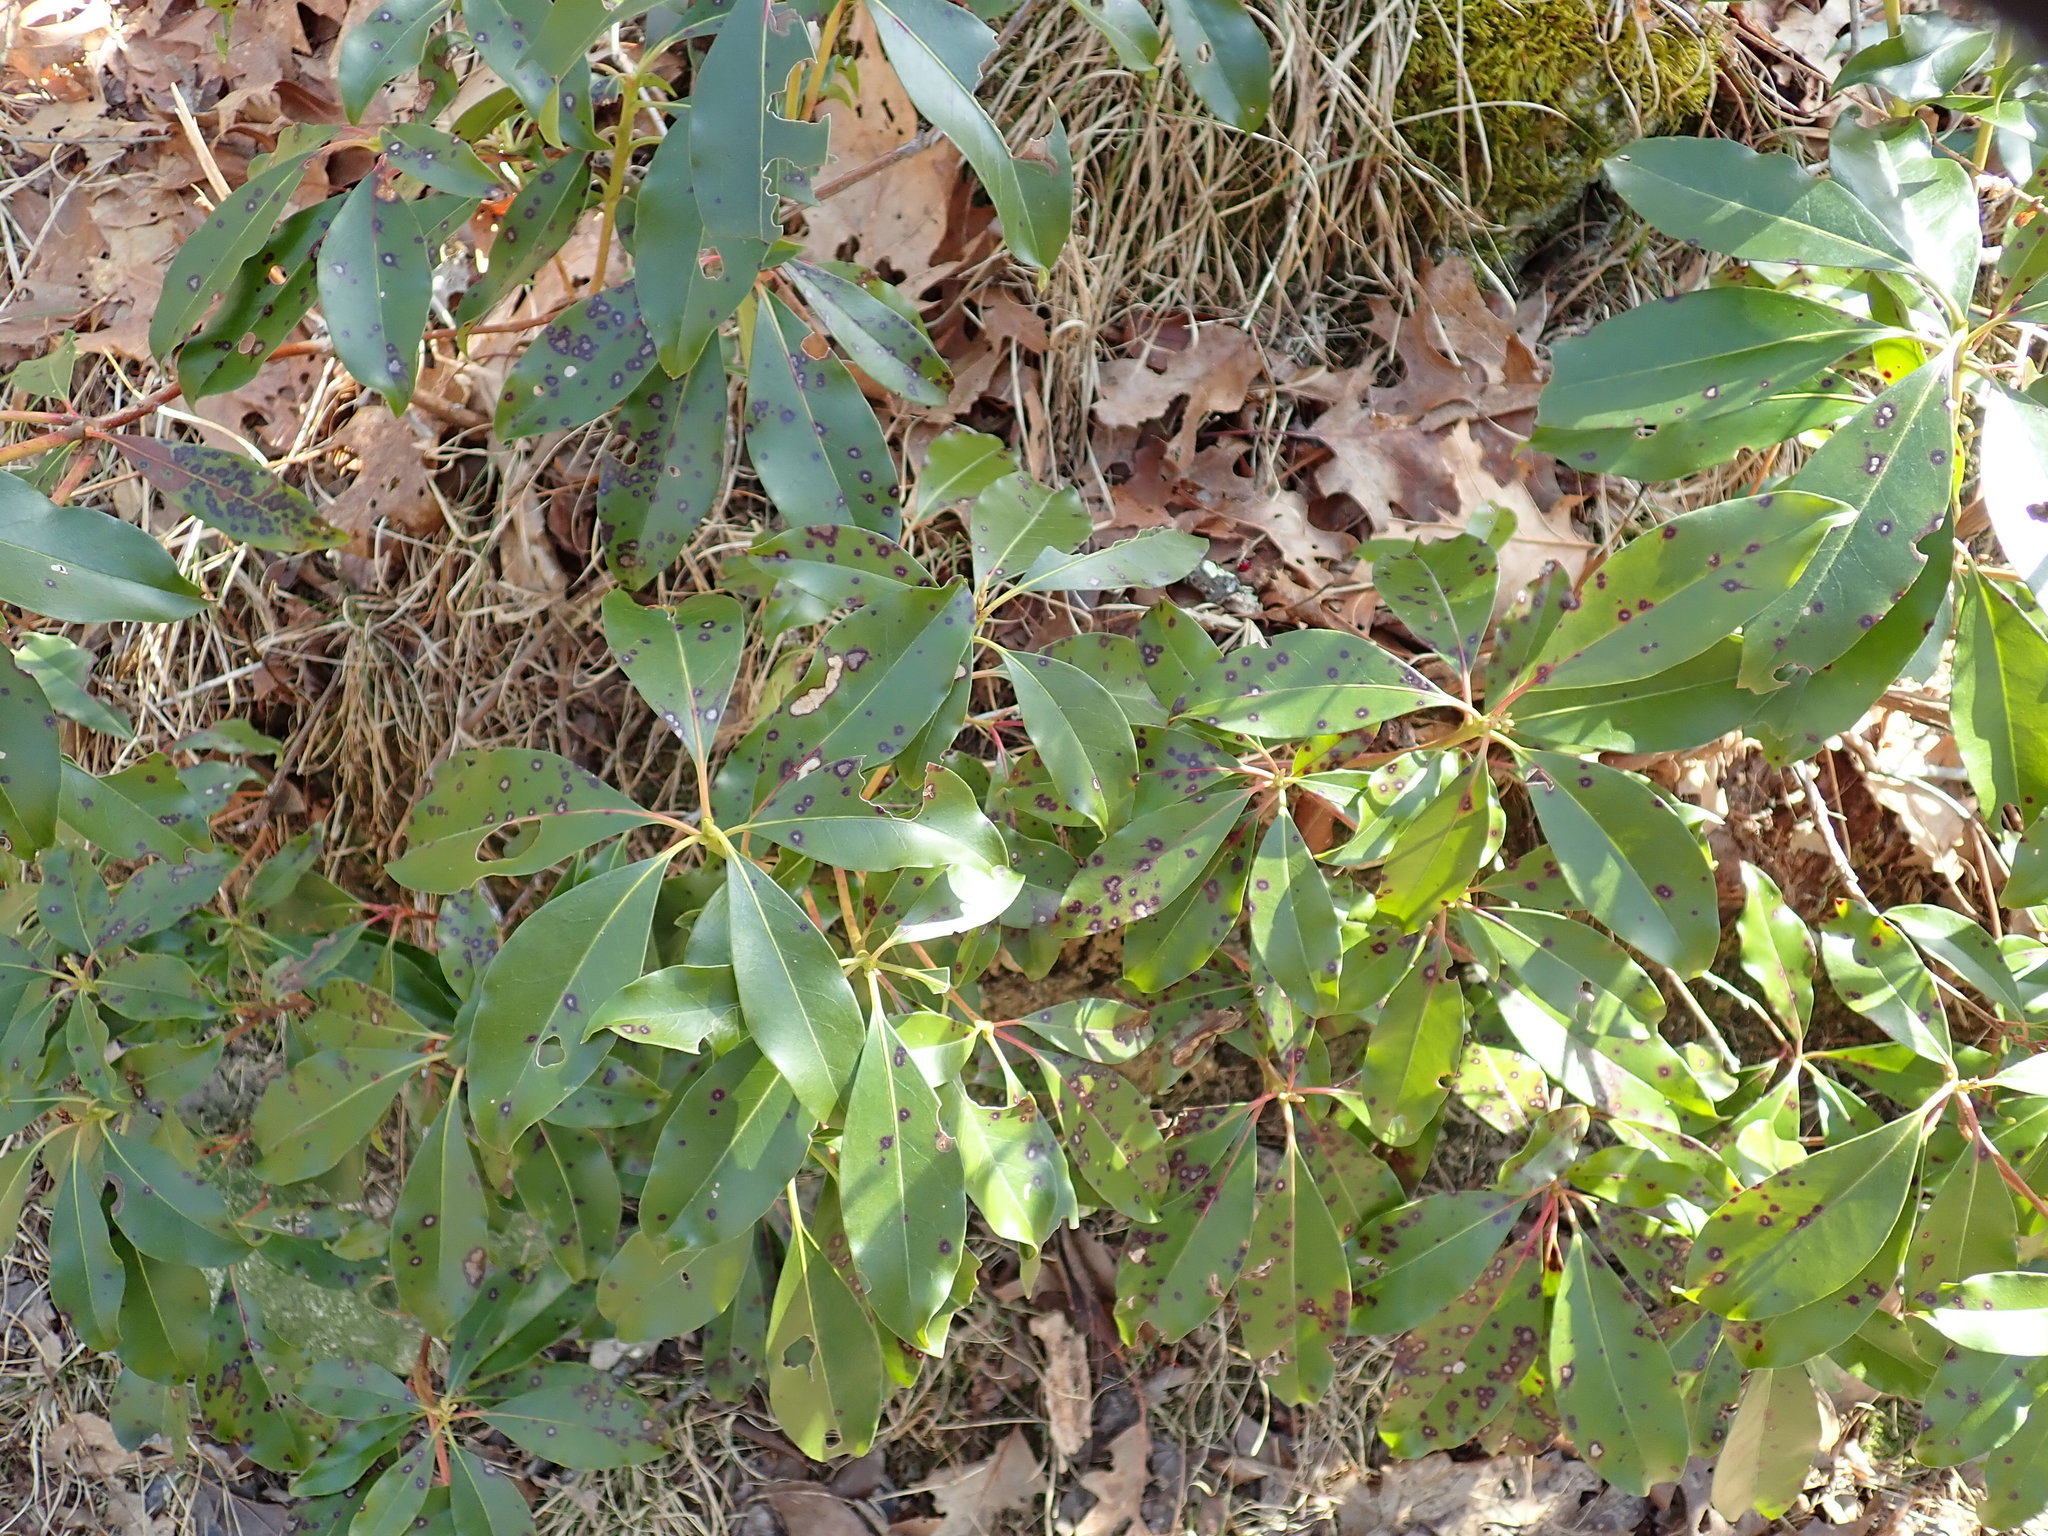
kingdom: Plantae
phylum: Tracheophyta
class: Magnoliopsida
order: Ericales
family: Ericaceae
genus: Kalmia
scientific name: Kalmia latifolia
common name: Mountain-laurel
